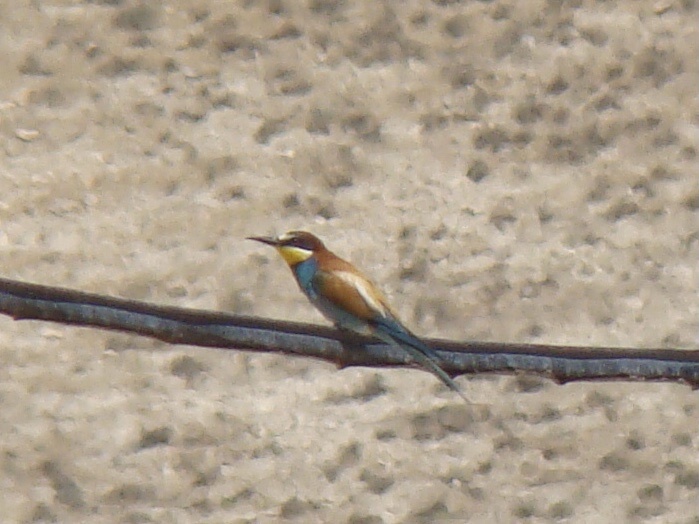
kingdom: Animalia
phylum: Chordata
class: Aves
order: Coraciiformes
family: Meropidae
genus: Merops
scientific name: Merops apiaster
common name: European bee-eater
